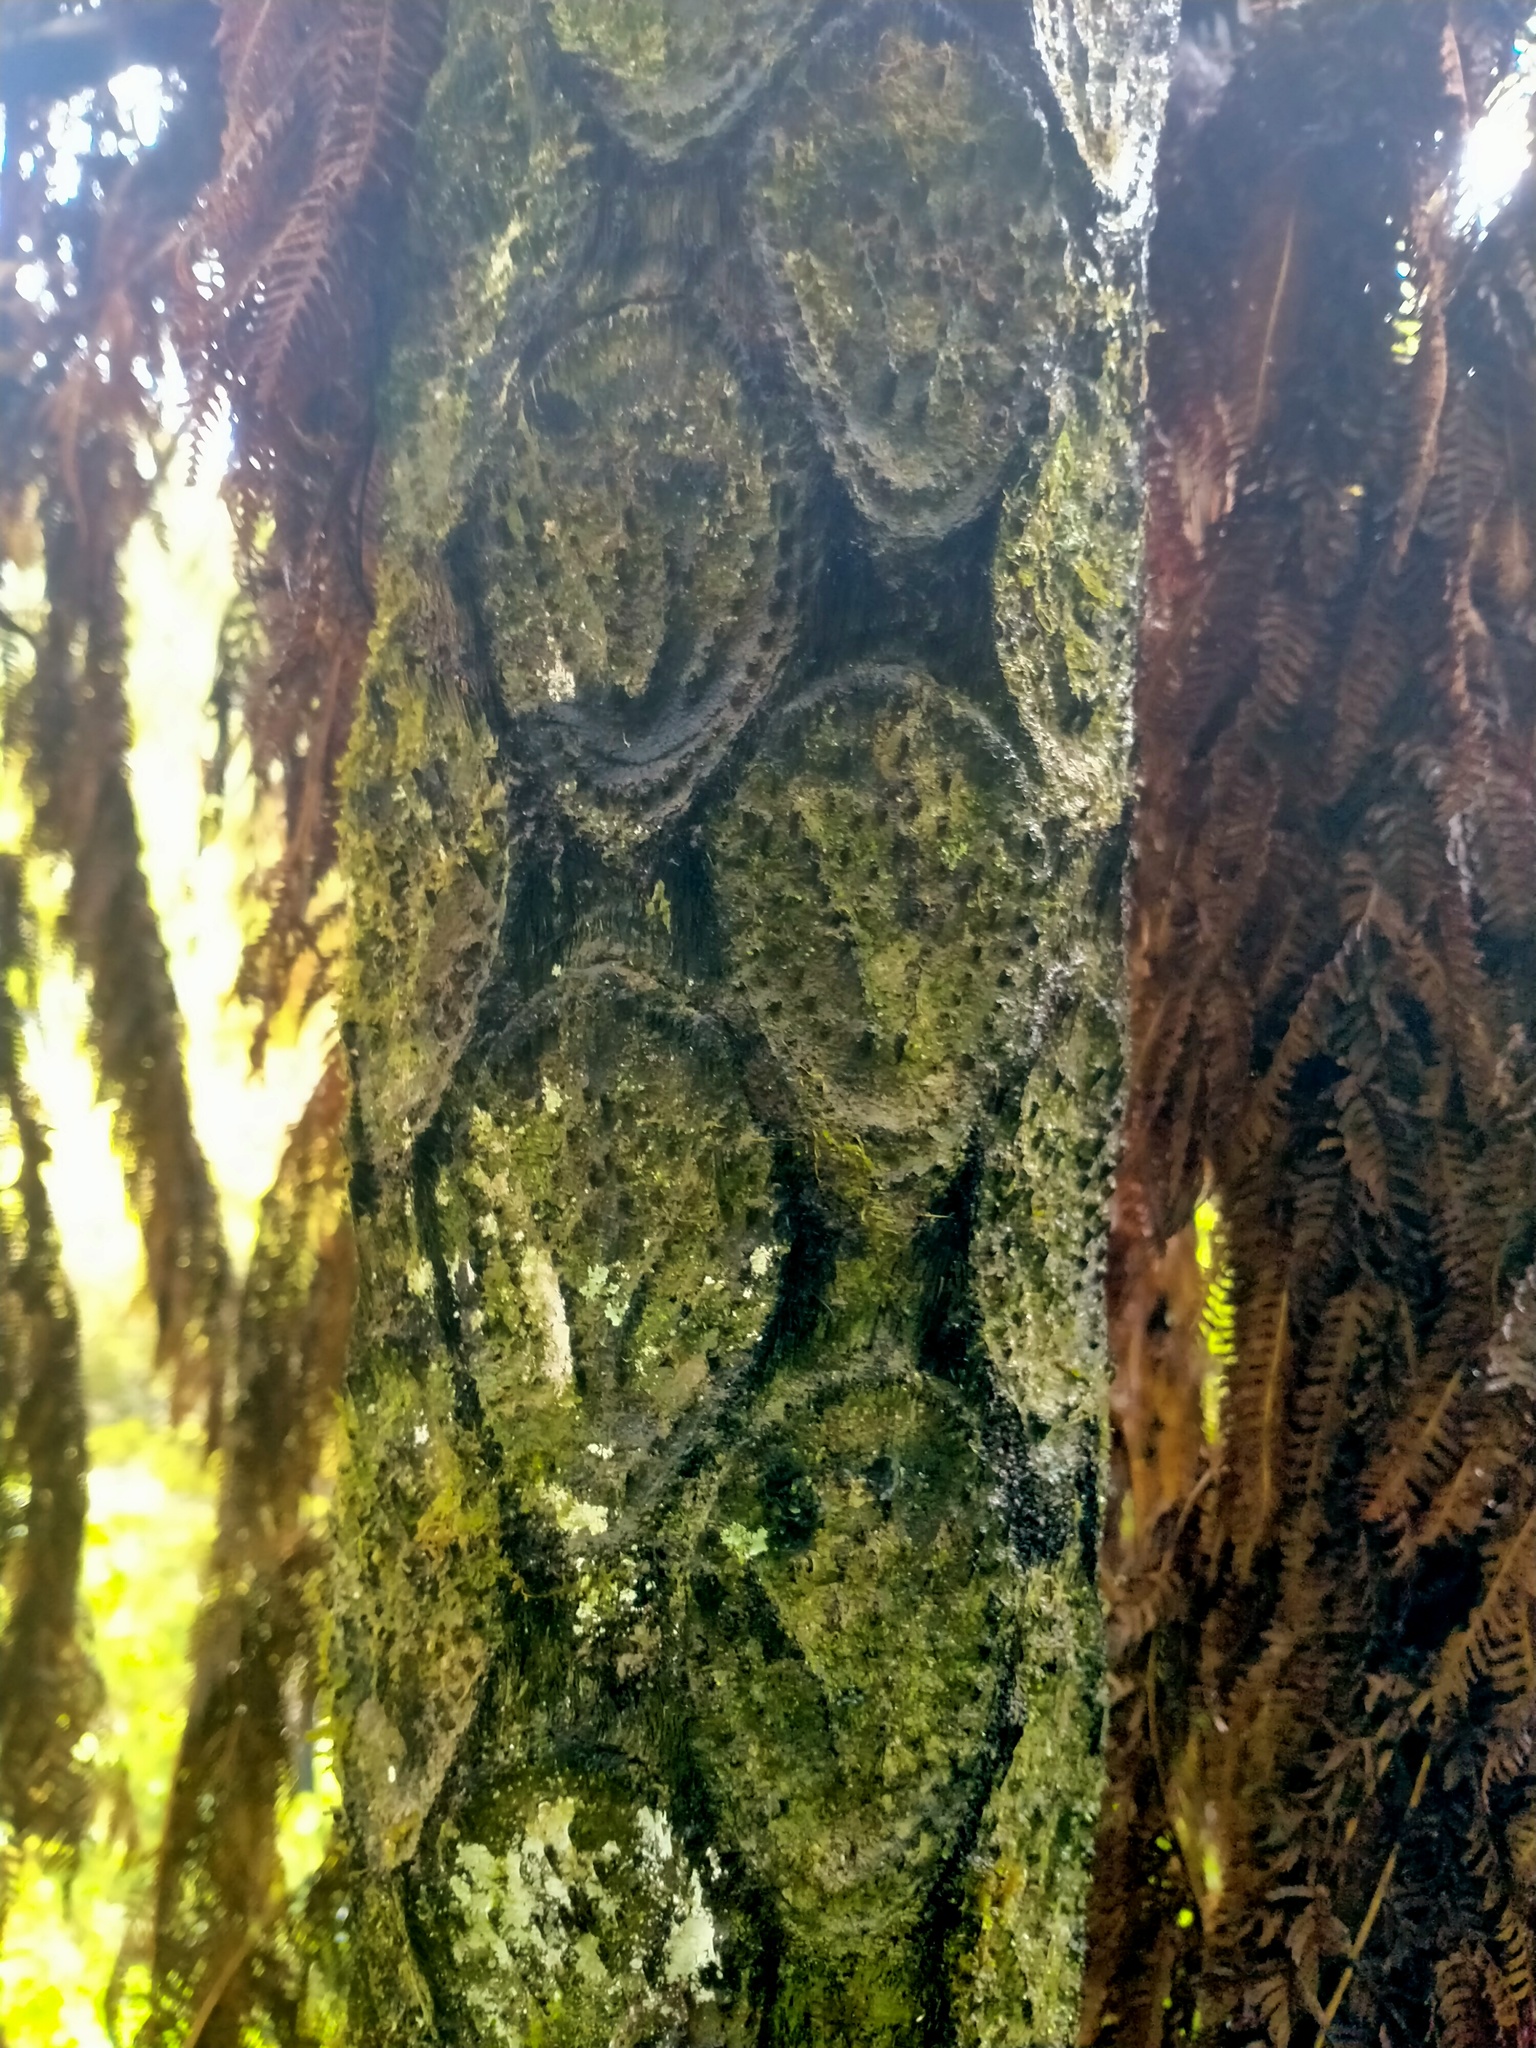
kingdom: Plantae
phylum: Tracheophyta
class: Polypodiopsida
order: Cyatheales
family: Cyatheaceae
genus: Sphaeropteris
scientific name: Sphaeropteris medullaris
